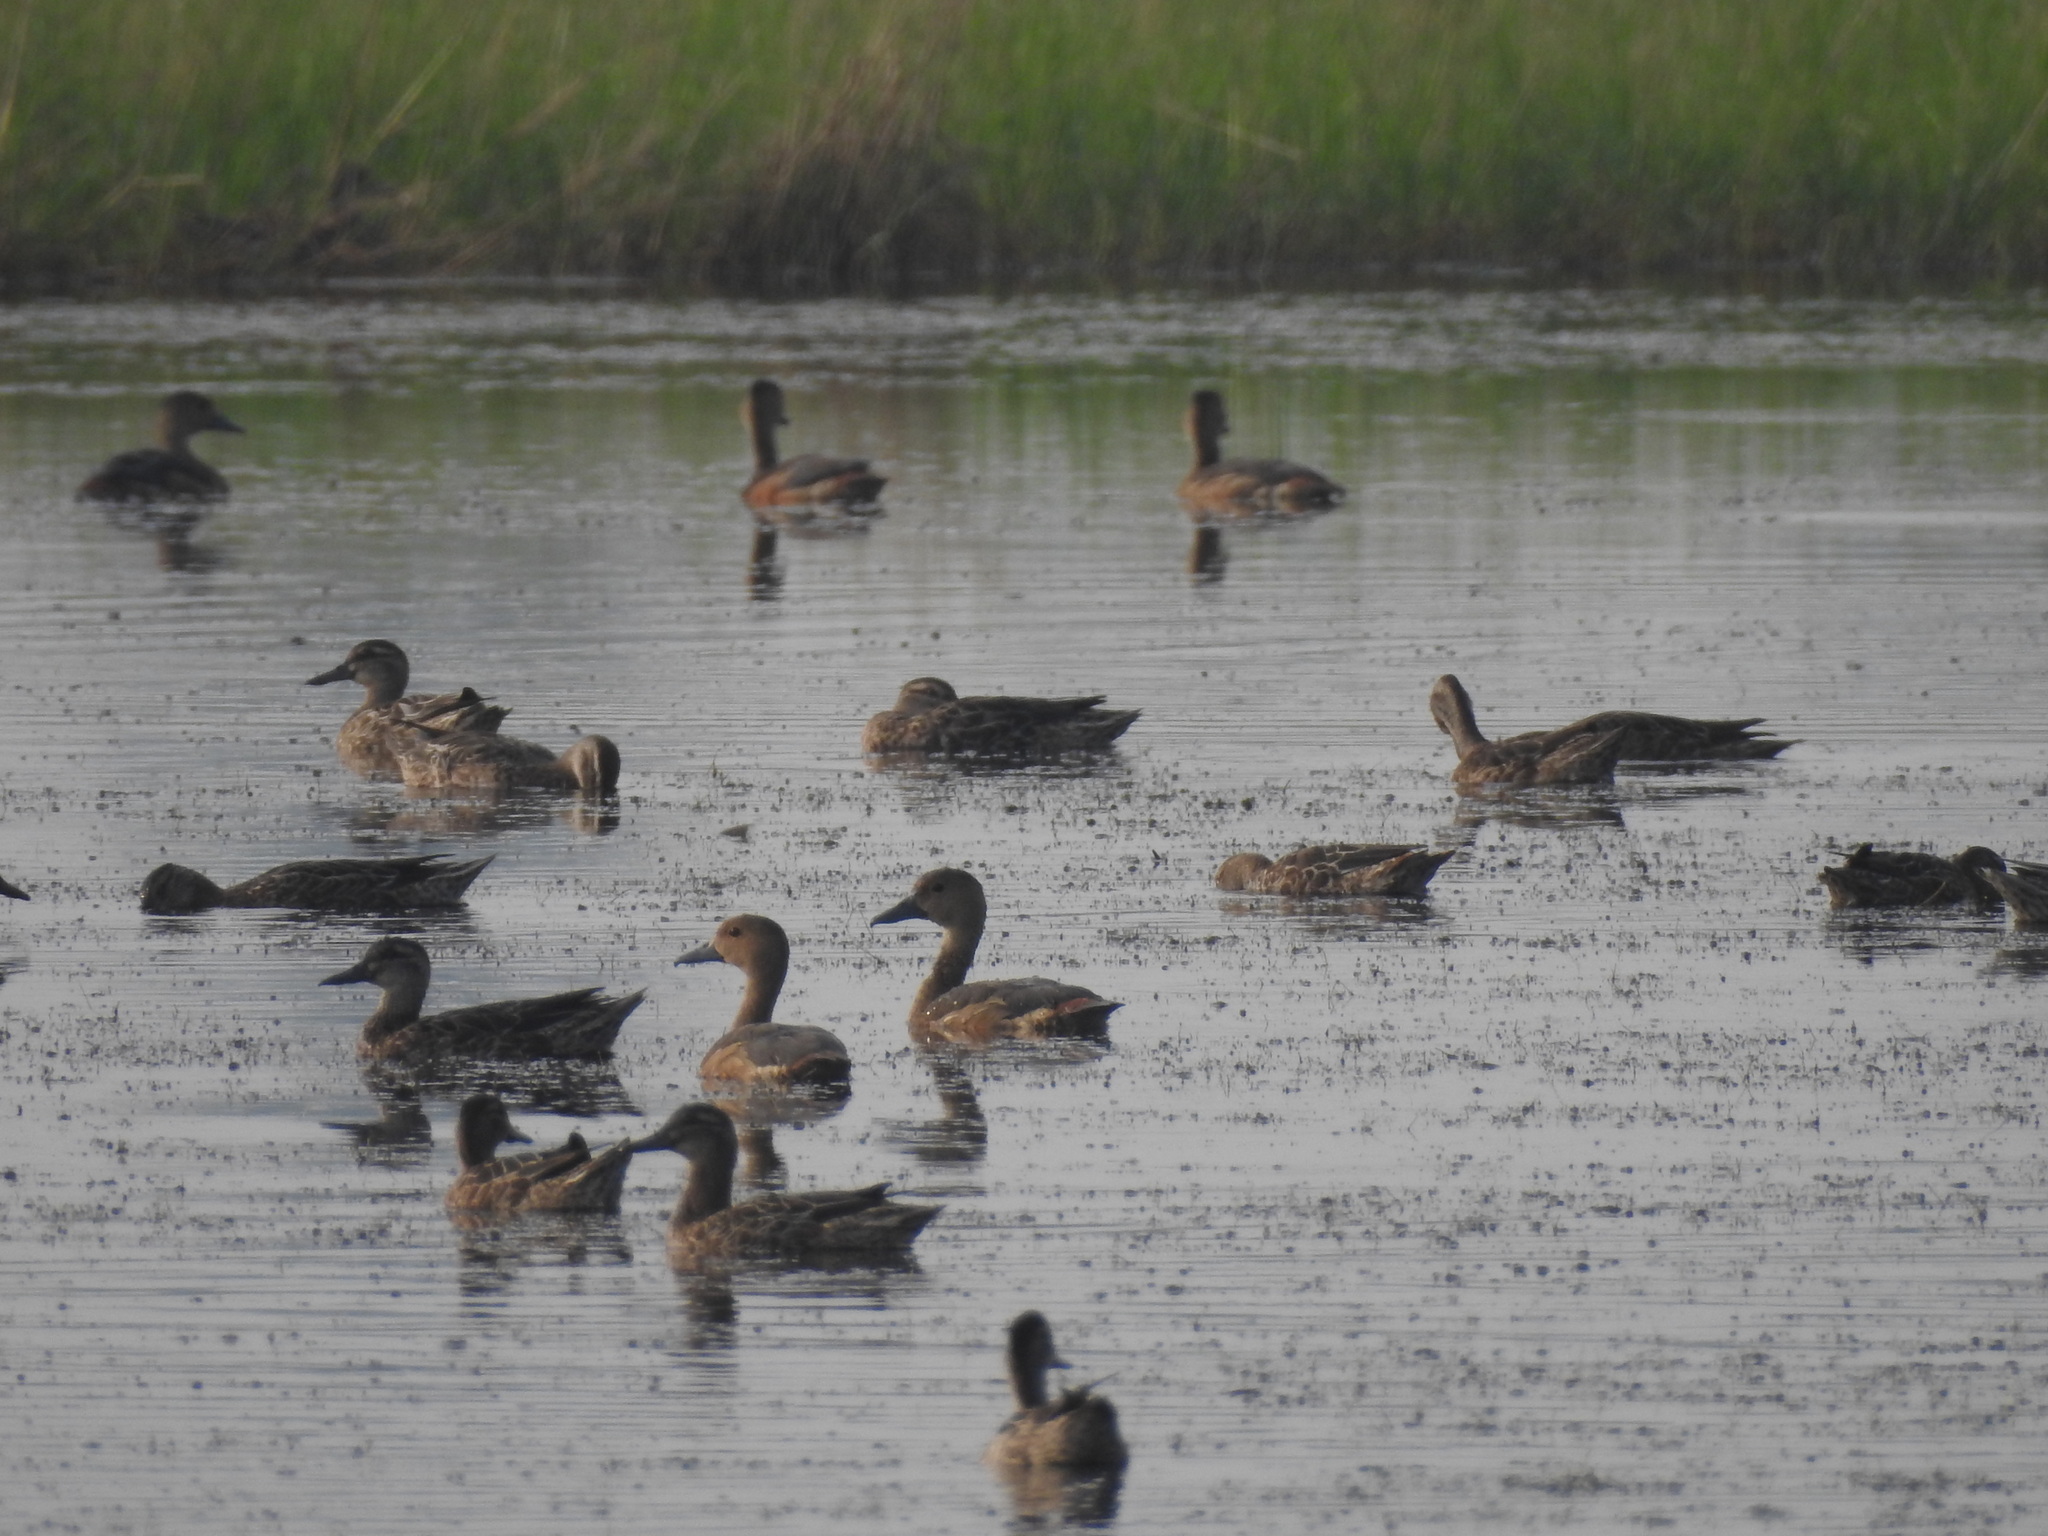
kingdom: Animalia
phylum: Chordata
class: Aves
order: Anseriformes
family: Anatidae
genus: Dendrocygna
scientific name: Dendrocygna javanica
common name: Lesser whistling-duck
